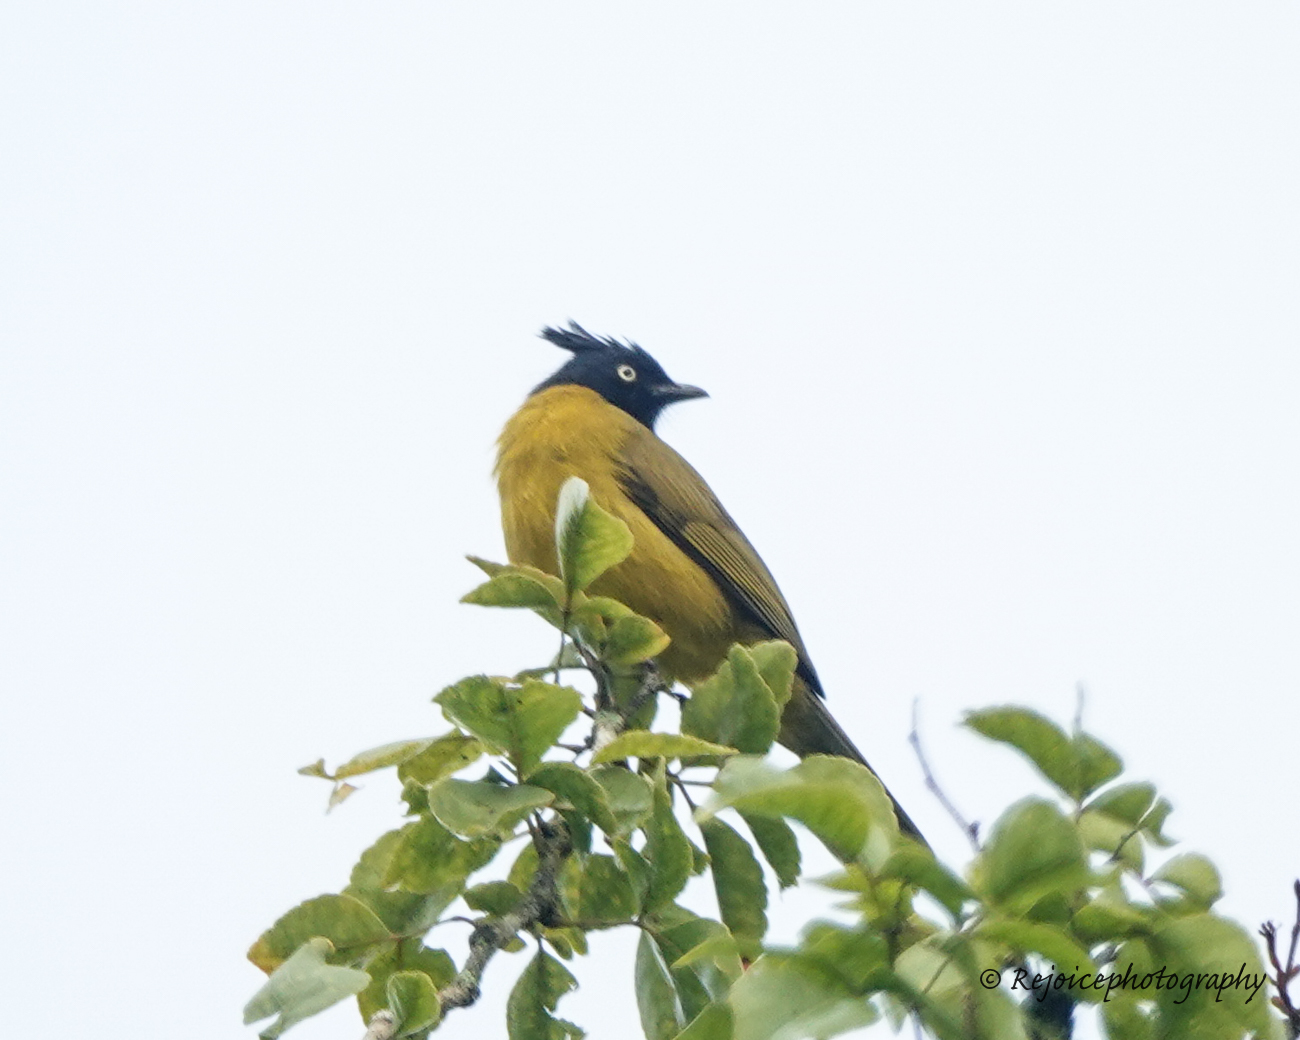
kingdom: Animalia
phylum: Chordata
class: Aves
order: Passeriformes
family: Pycnonotidae
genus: Pycnonotus
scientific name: Pycnonotus flaviventris
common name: Black-crested bulbul
